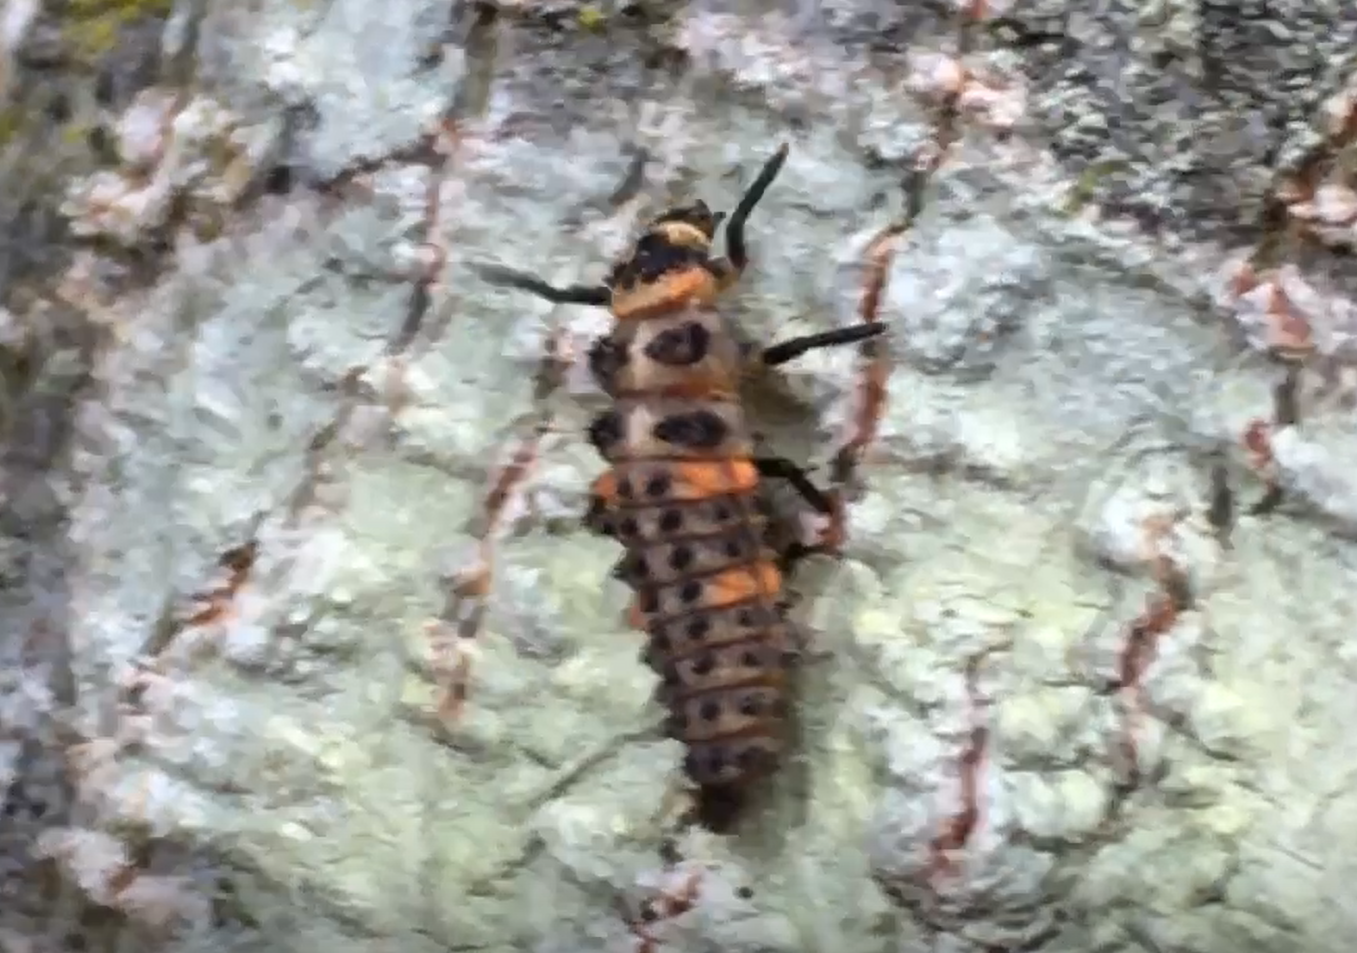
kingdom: Animalia
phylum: Arthropoda
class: Insecta
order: Coleoptera
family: Coccinellidae
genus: Coccinella
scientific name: Coccinella septempunctata
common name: Sevenspotted lady beetle
